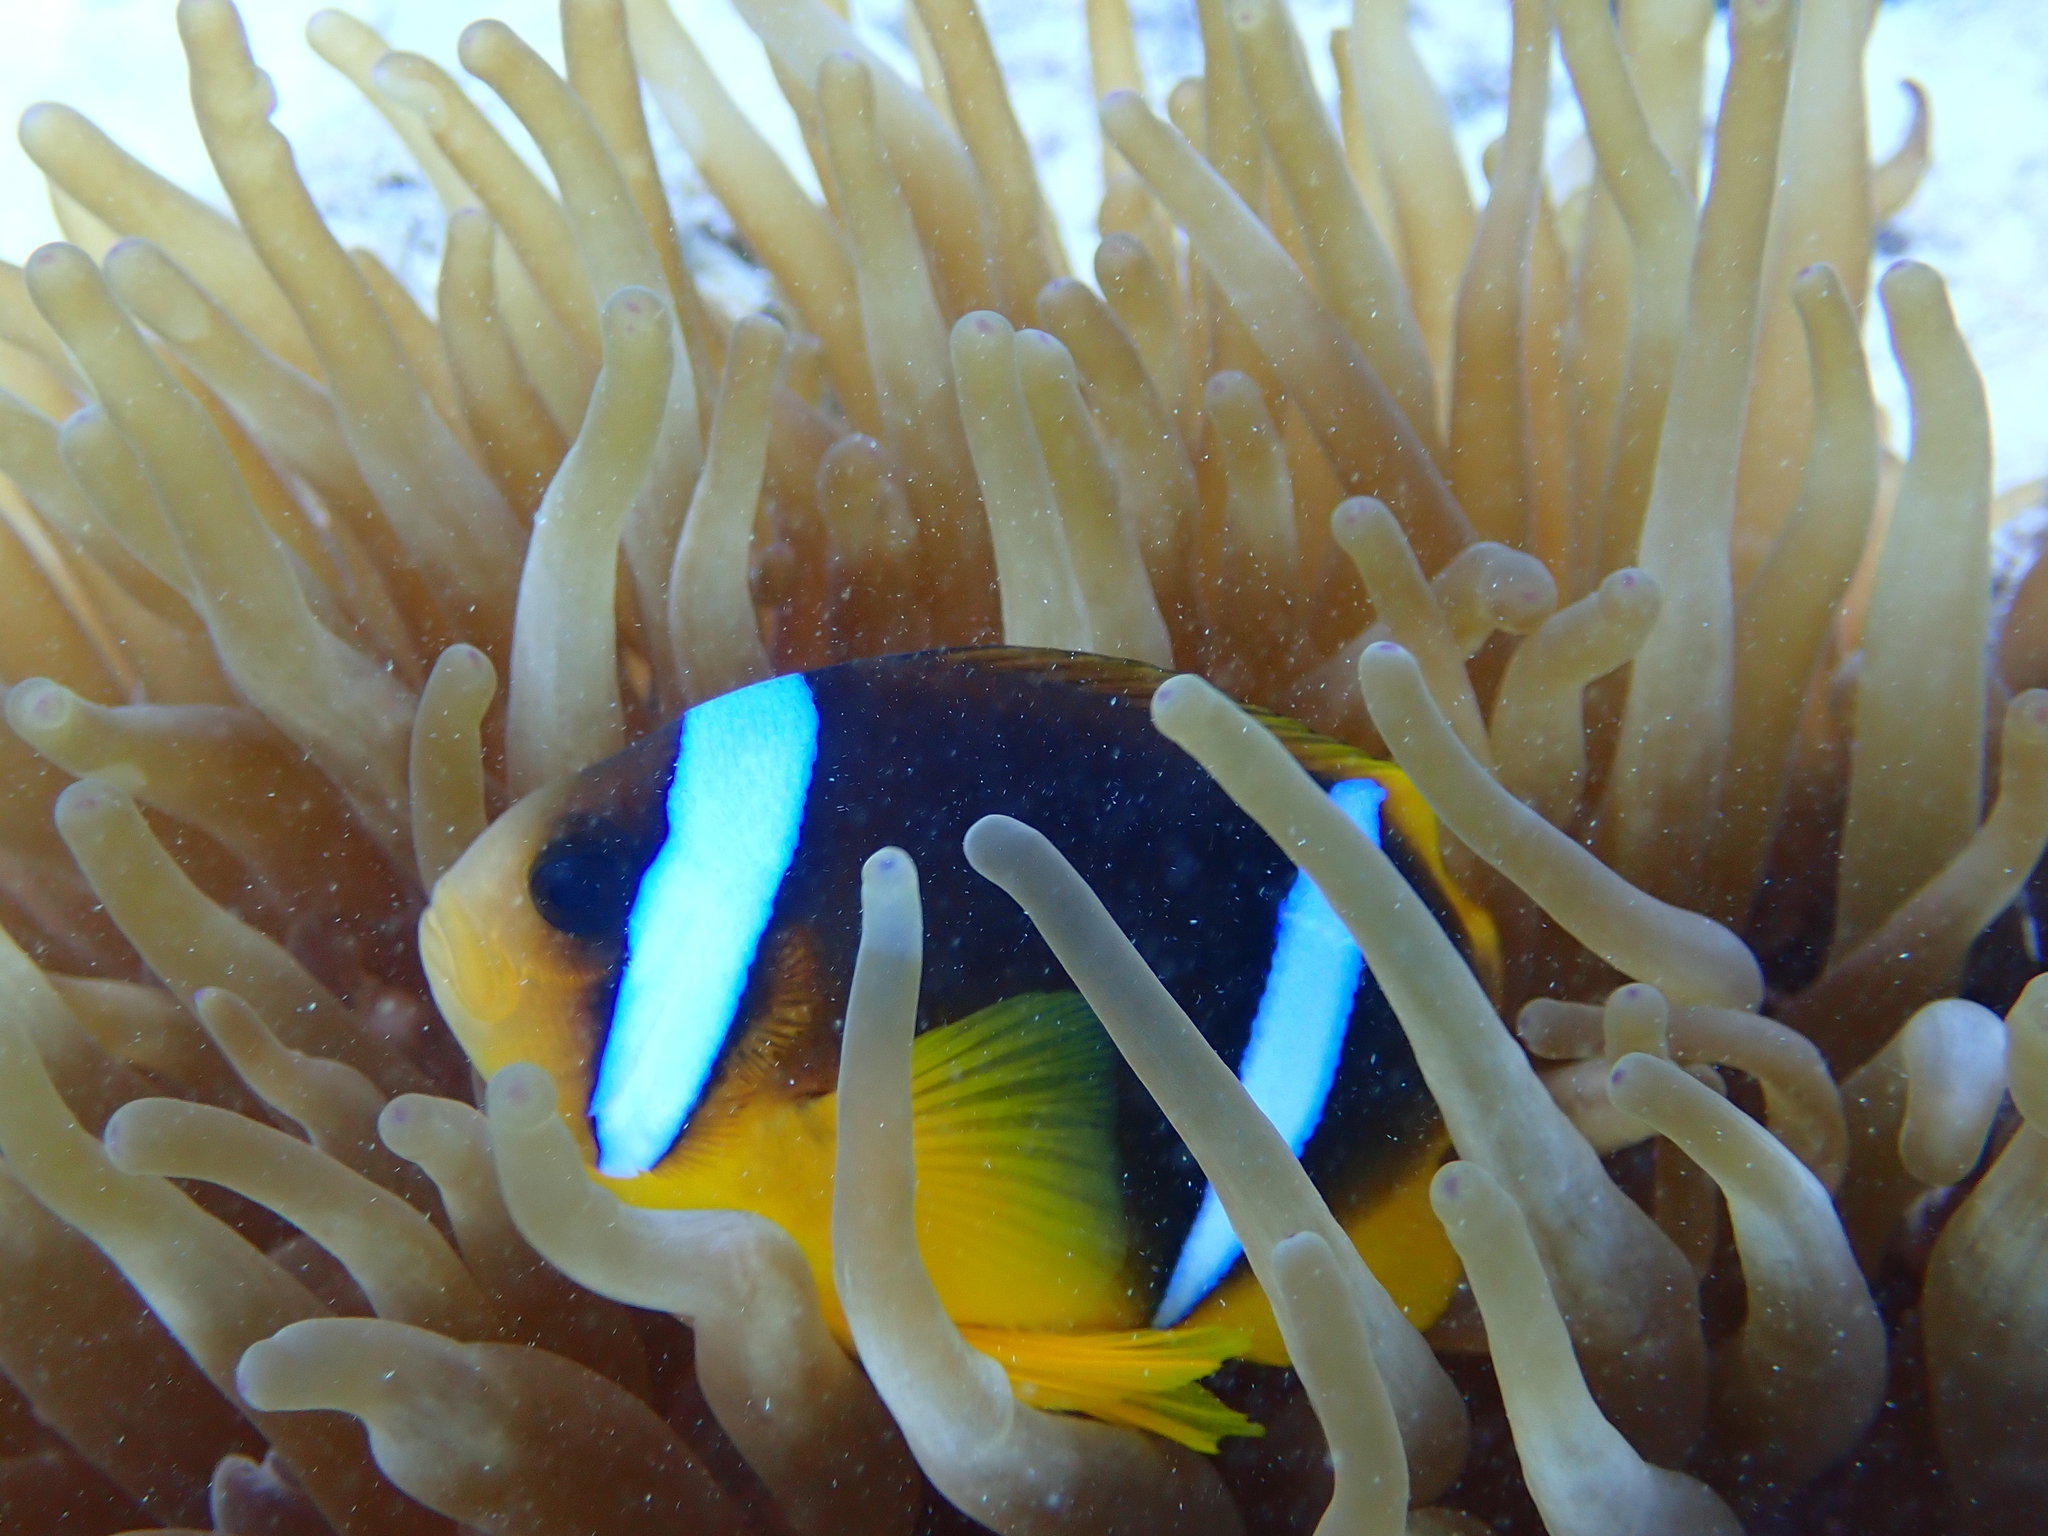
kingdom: Animalia
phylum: Chordata
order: Perciformes
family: Pomacentridae
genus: Amphiprion
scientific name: Amphiprion bicinctus
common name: Two-banded anemonefish
